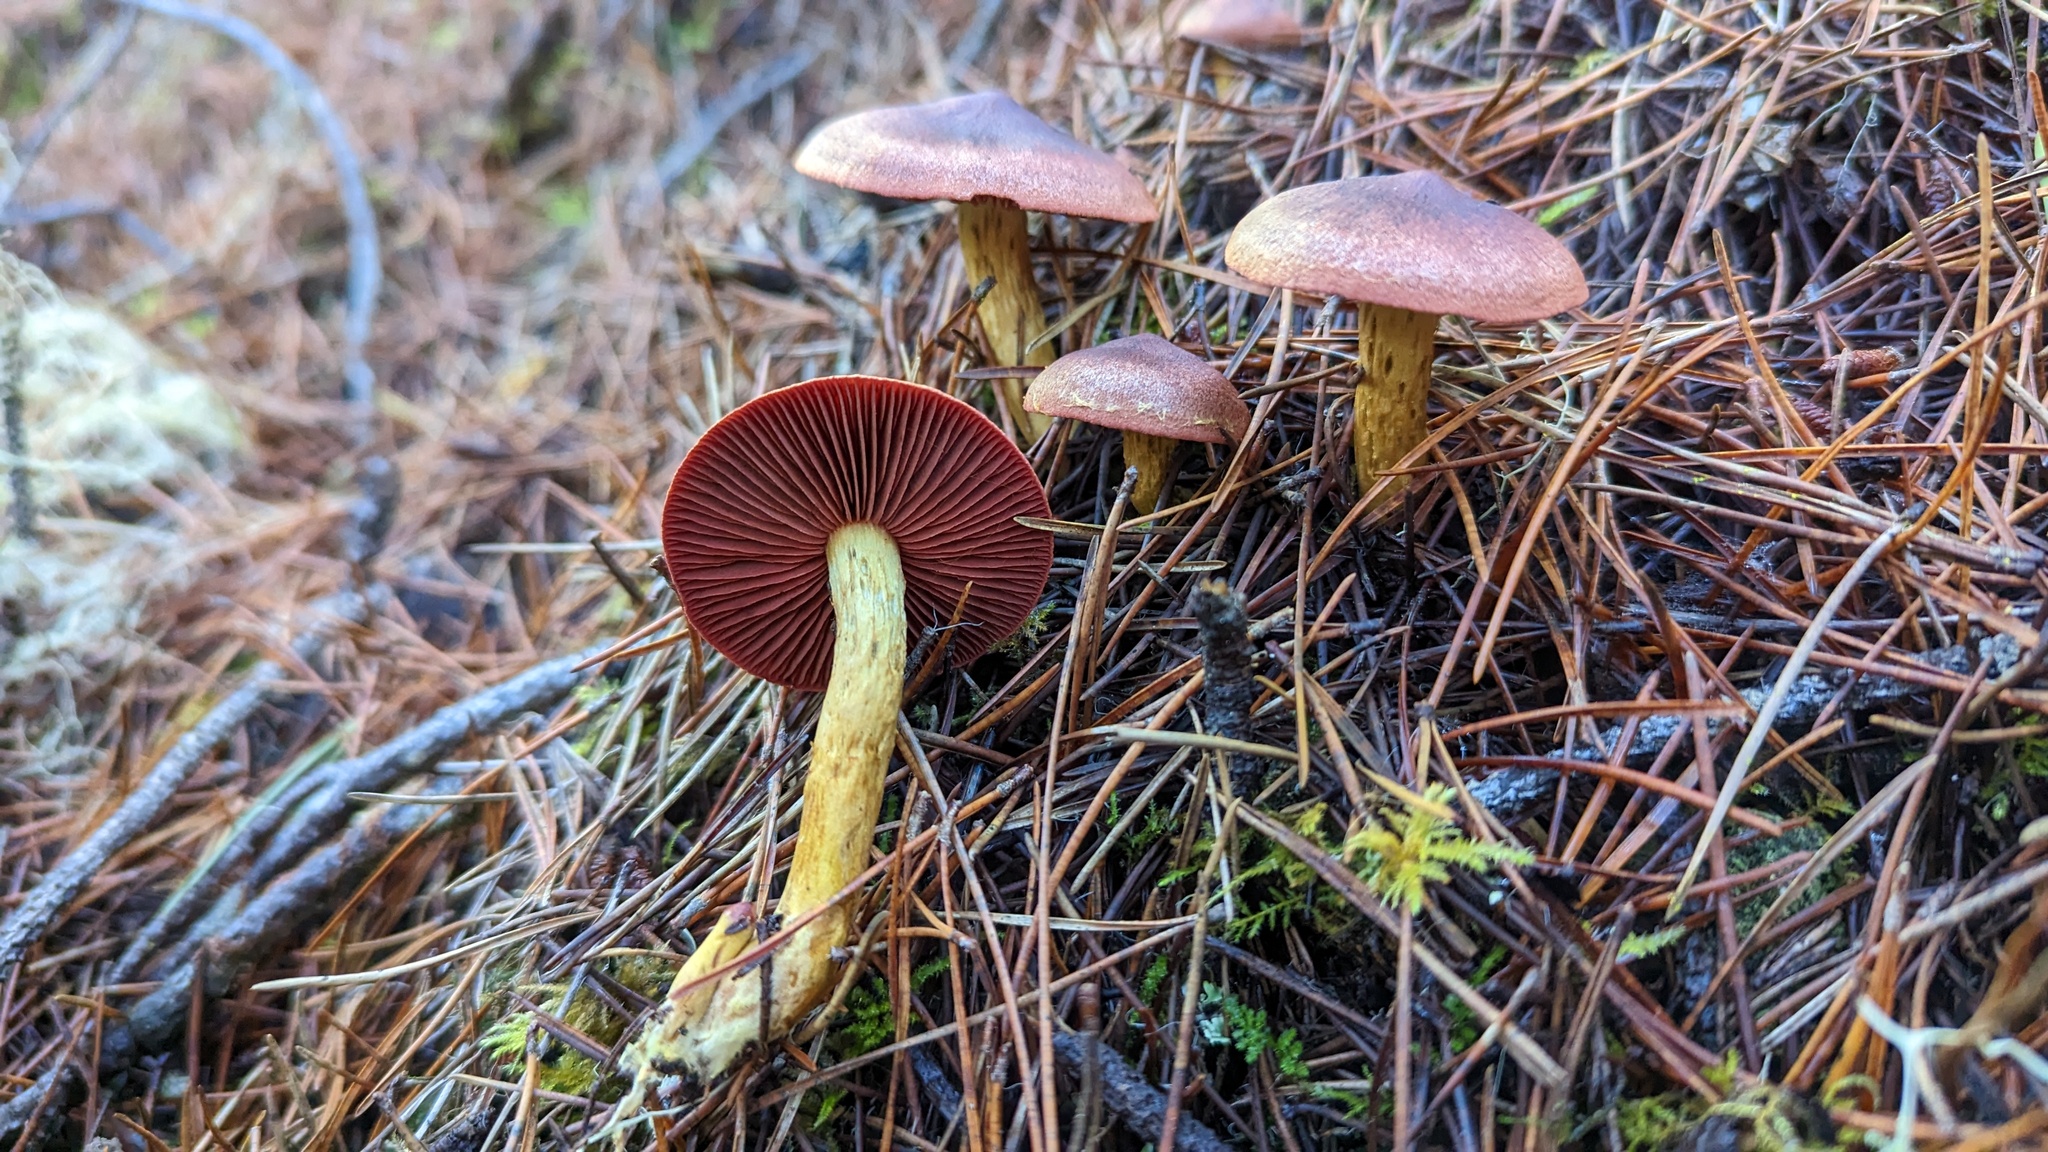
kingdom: Fungi
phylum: Basidiomycota
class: Agaricomycetes
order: Agaricales
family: Cortinariaceae
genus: Cortinarius
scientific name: Cortinarius smithii
